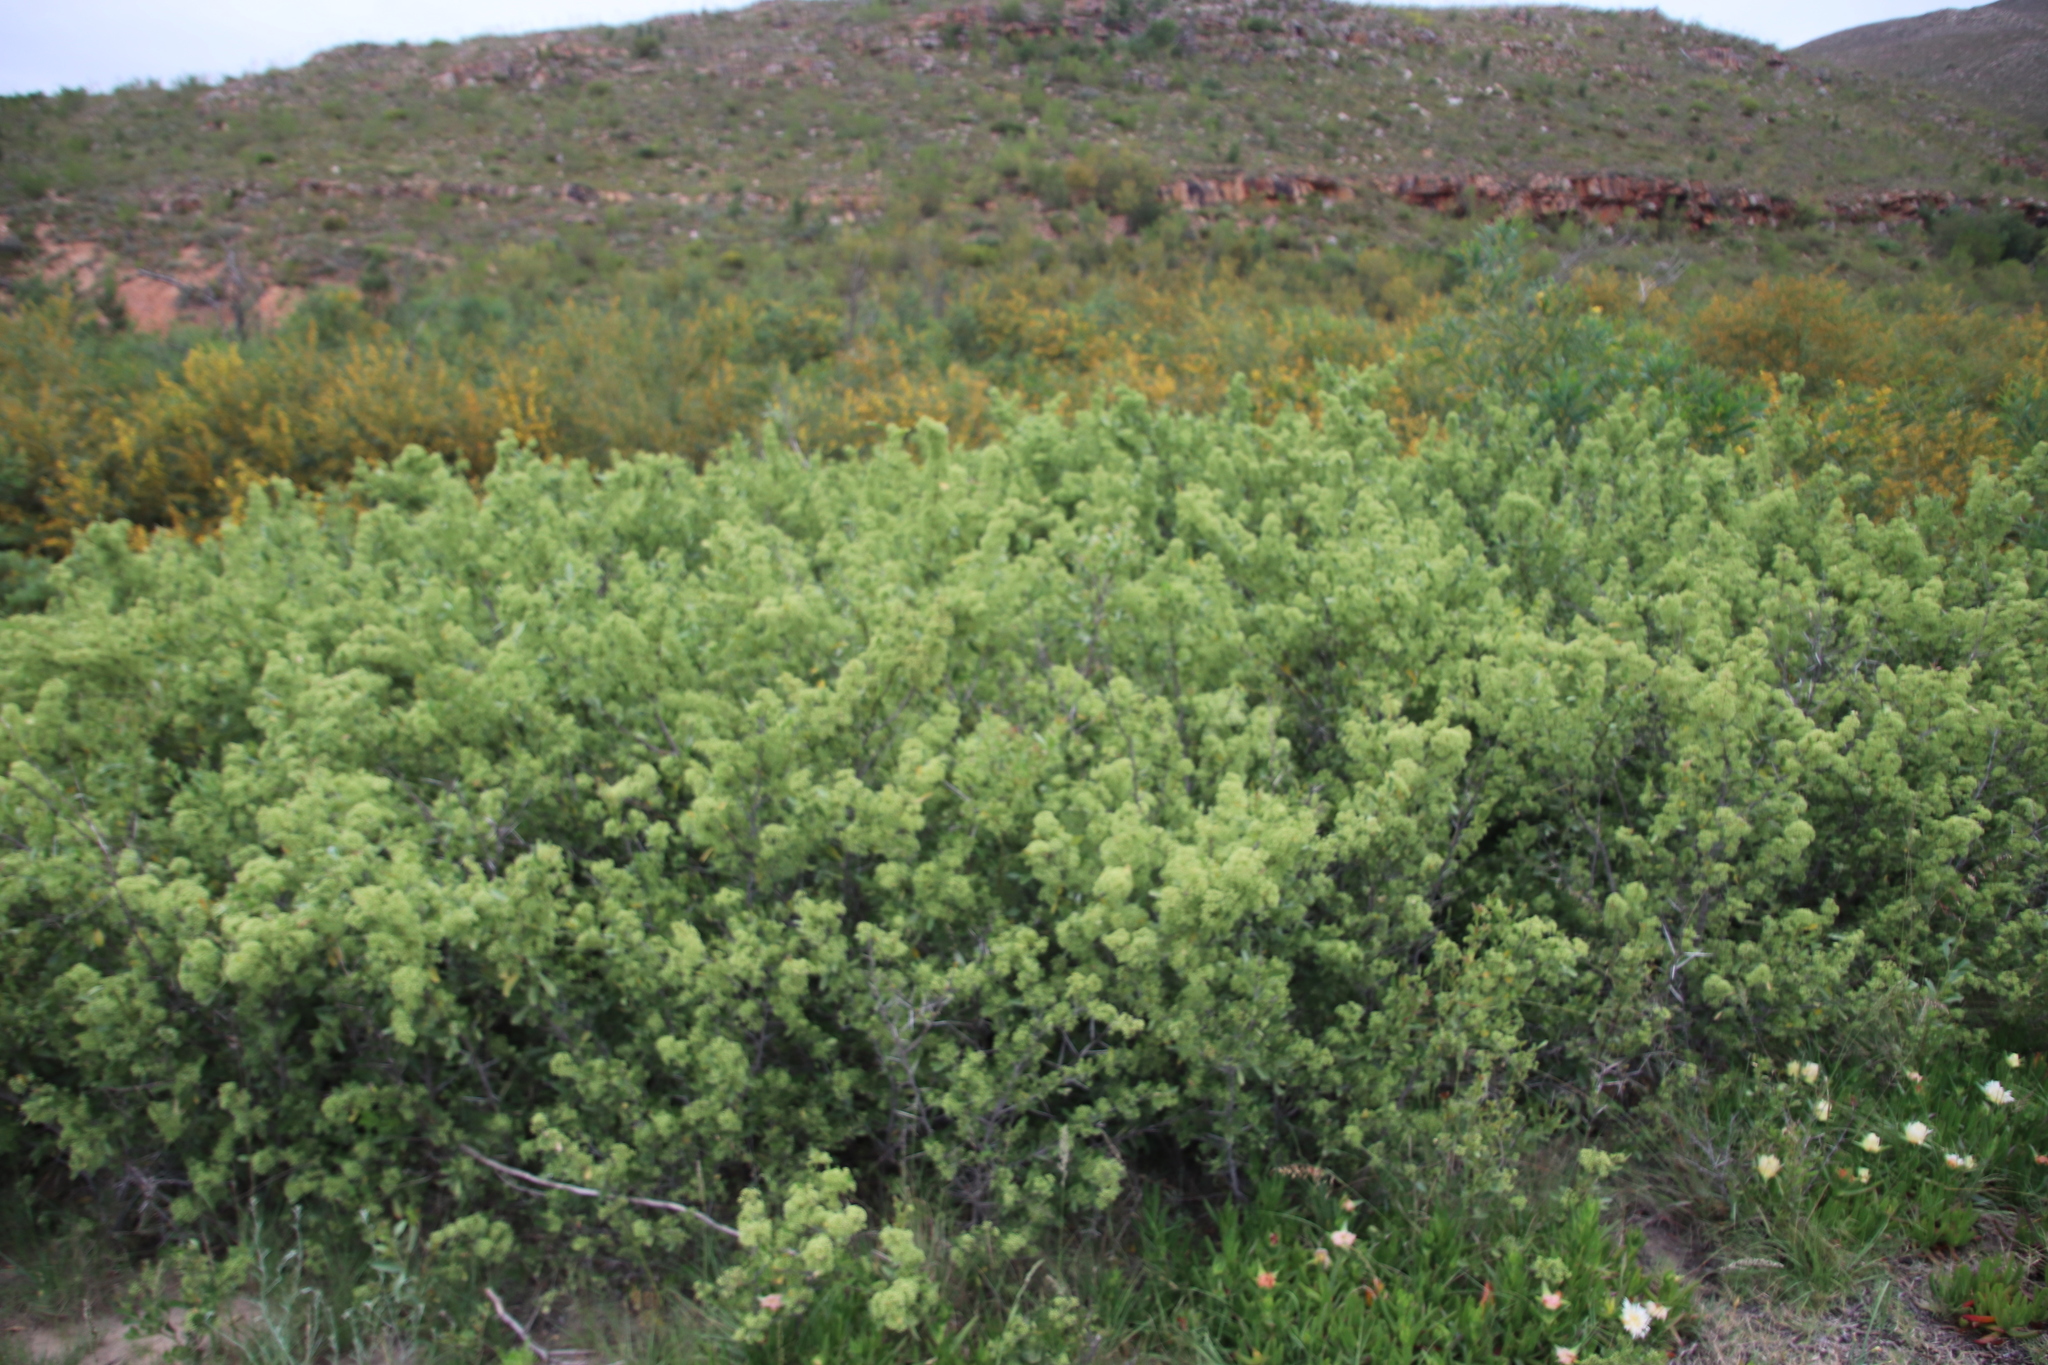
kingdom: Plantae
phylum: Tracheophyta
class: Magnoliopsida
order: Celastrales
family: Celastraceae
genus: Gymnosporia
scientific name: Gymnosporia buxifolia
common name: Common spike-thorn
